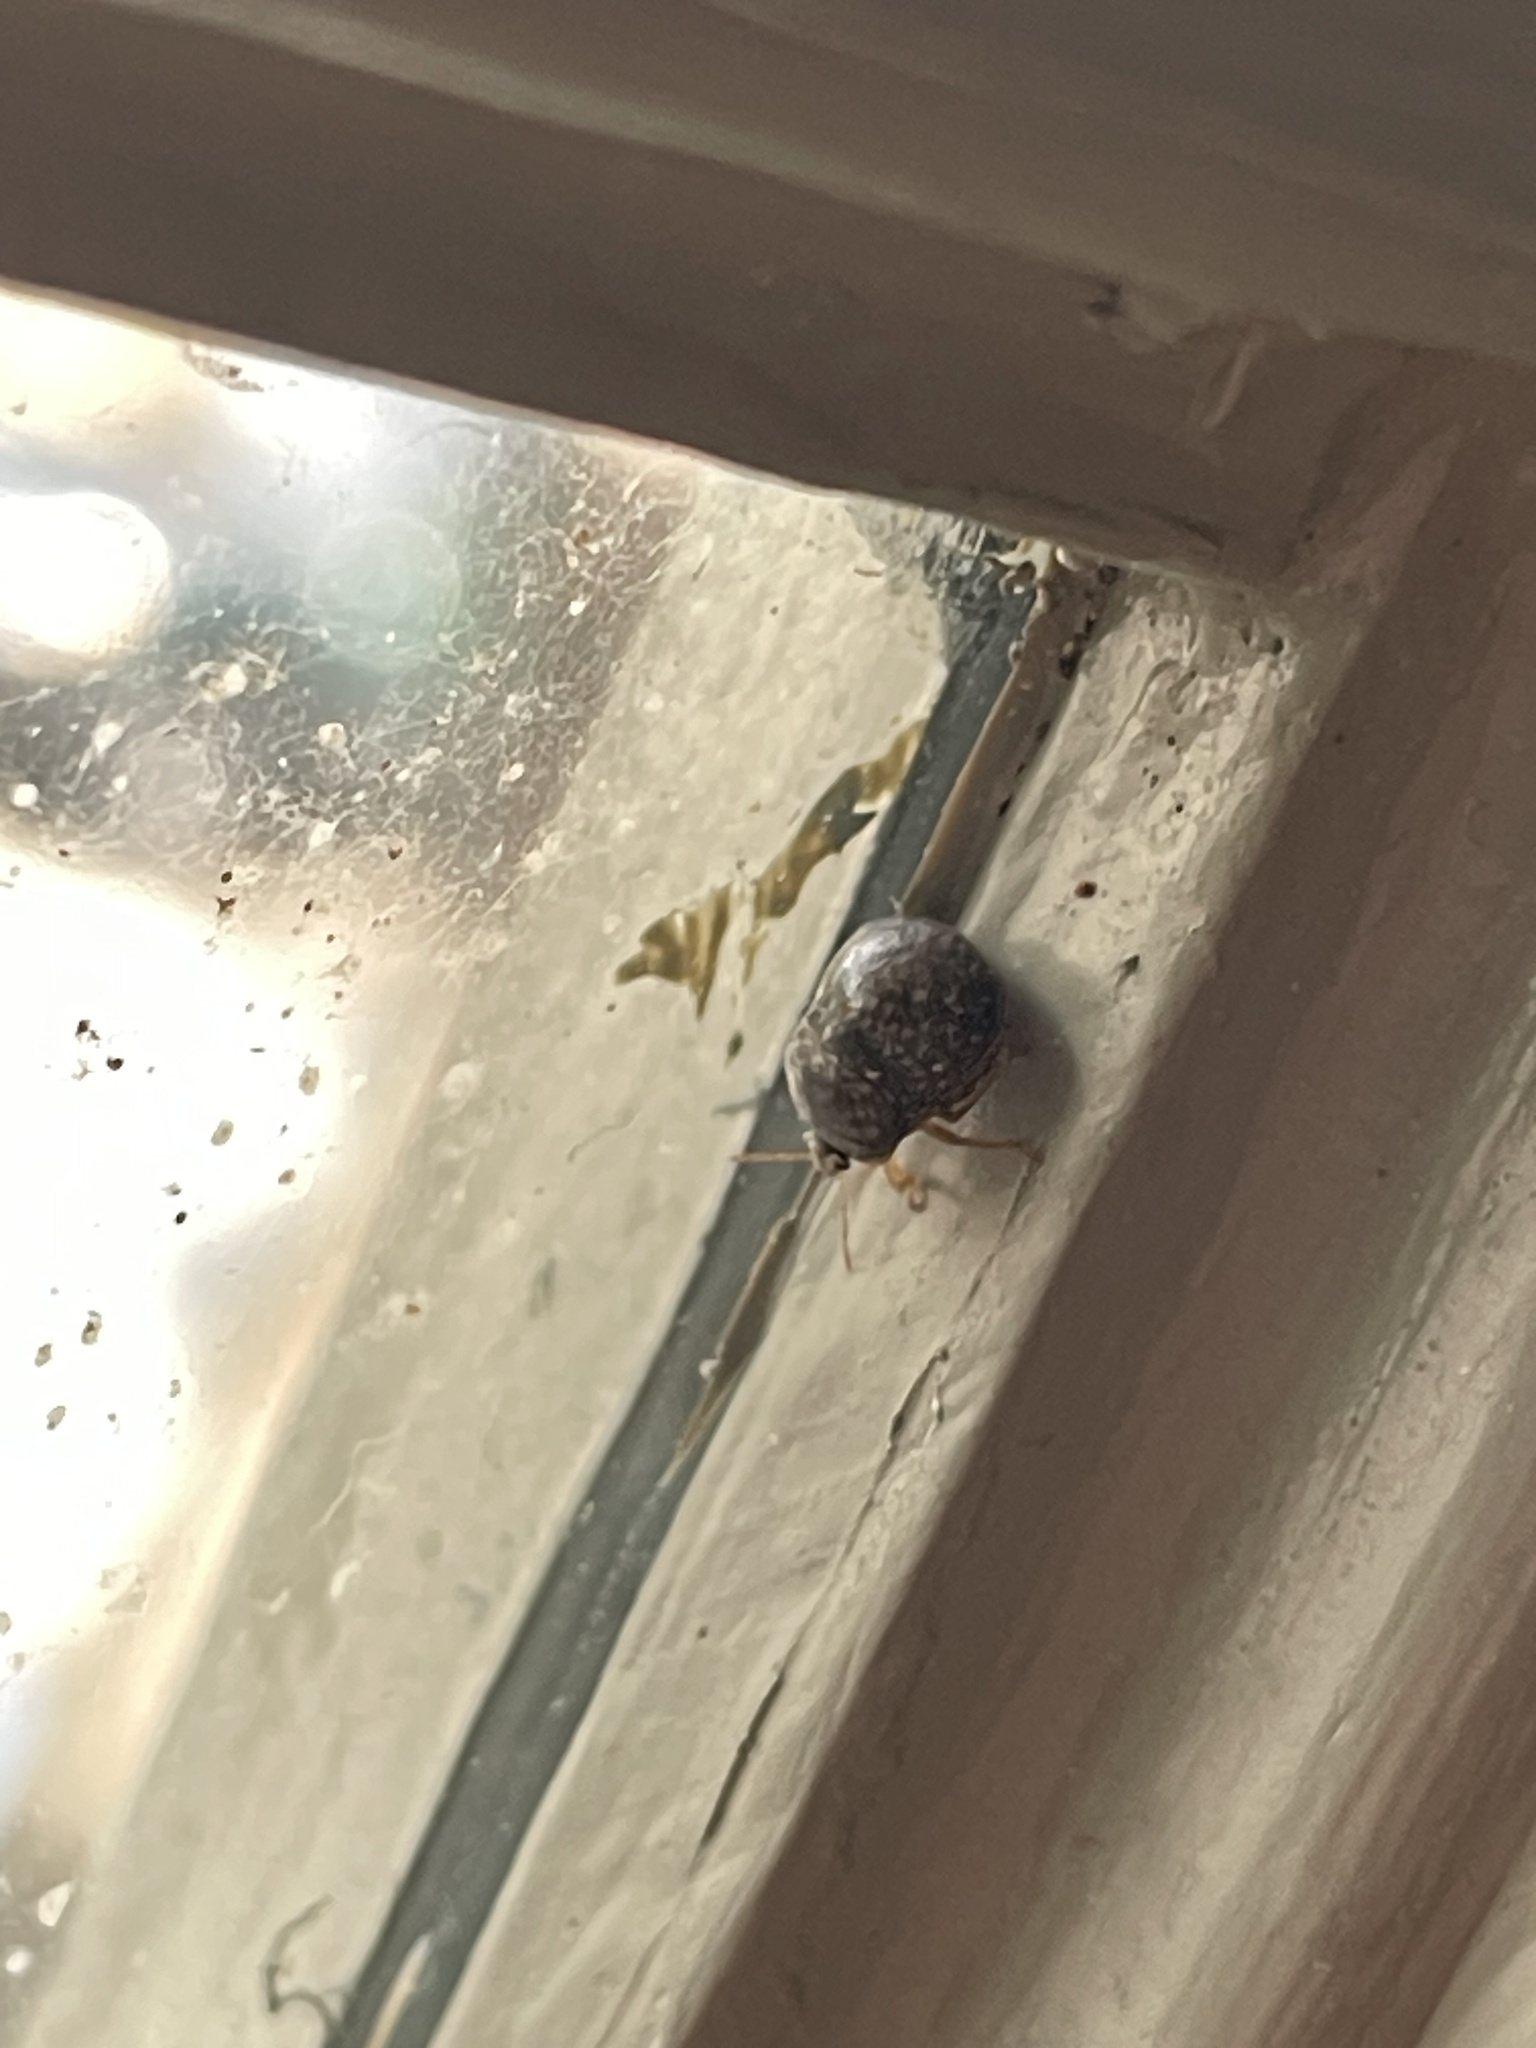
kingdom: Animalia
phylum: Arthropoda
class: Insecta
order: Hemiptera
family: Plataspidae
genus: Megacopta
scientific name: Megacopta cribraria
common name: Bean plataspid
